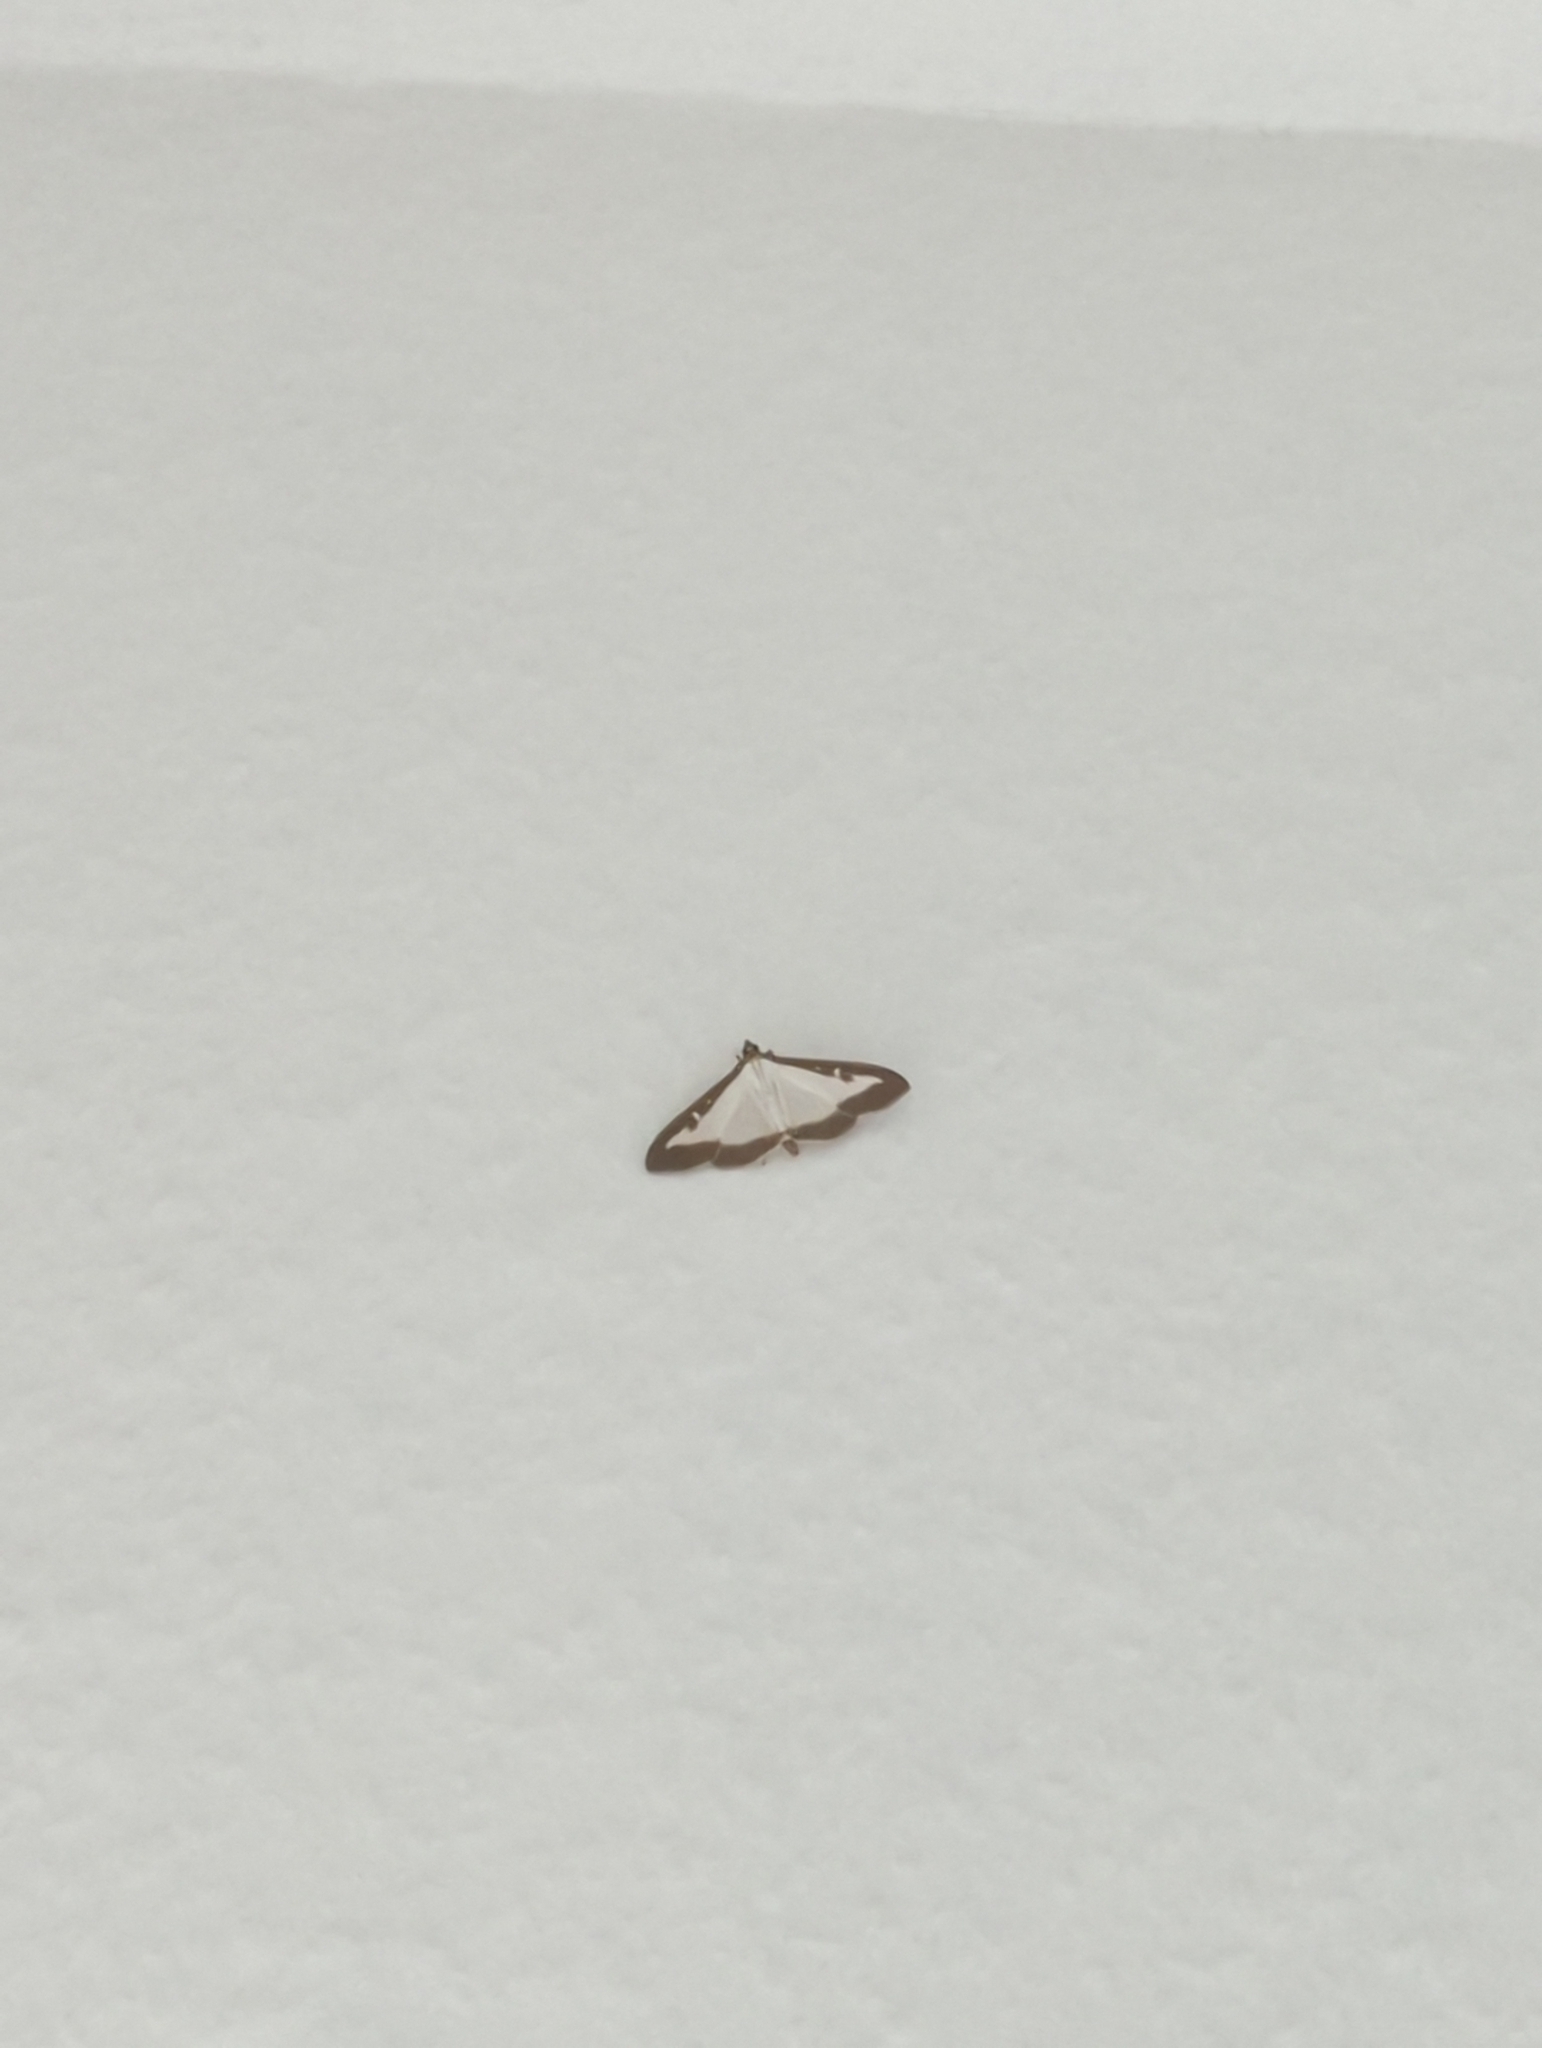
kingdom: Animalia
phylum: Arthropoda
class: Insecta
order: Lepidoptera
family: Crambidae
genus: Cydalima
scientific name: Cydalima perspectalis
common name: Box tree moth
